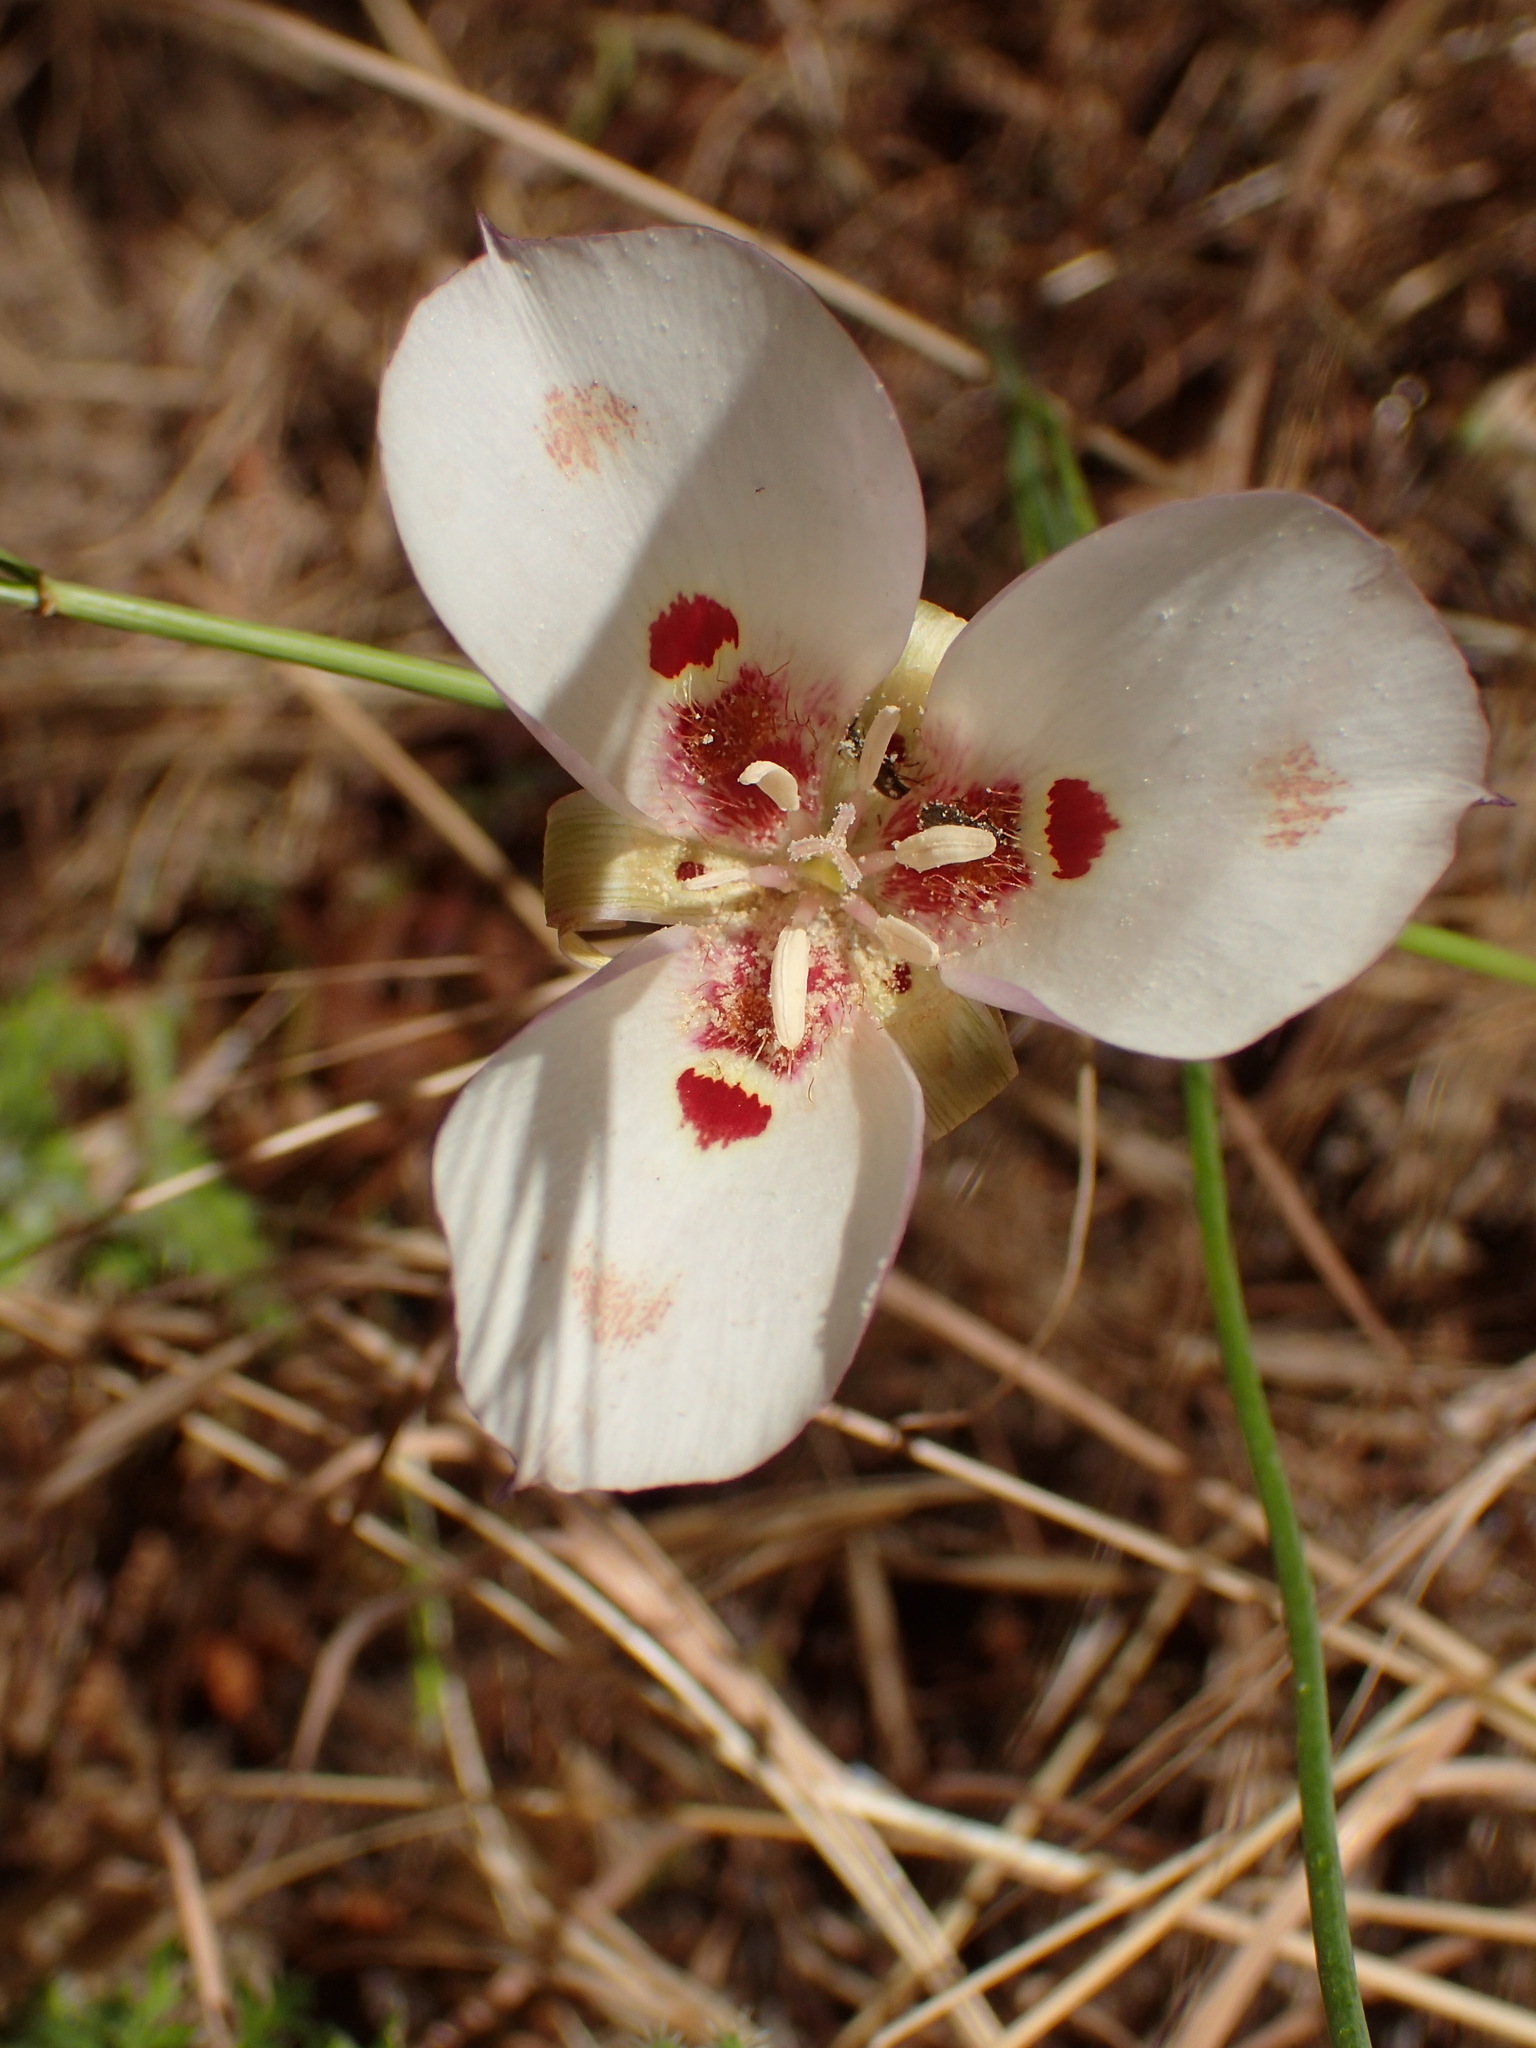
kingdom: Plantae
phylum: Tracheophyta
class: Liliopsida
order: Liliales
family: Liliaceae
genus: Calochortus
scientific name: Calochortus venustus
